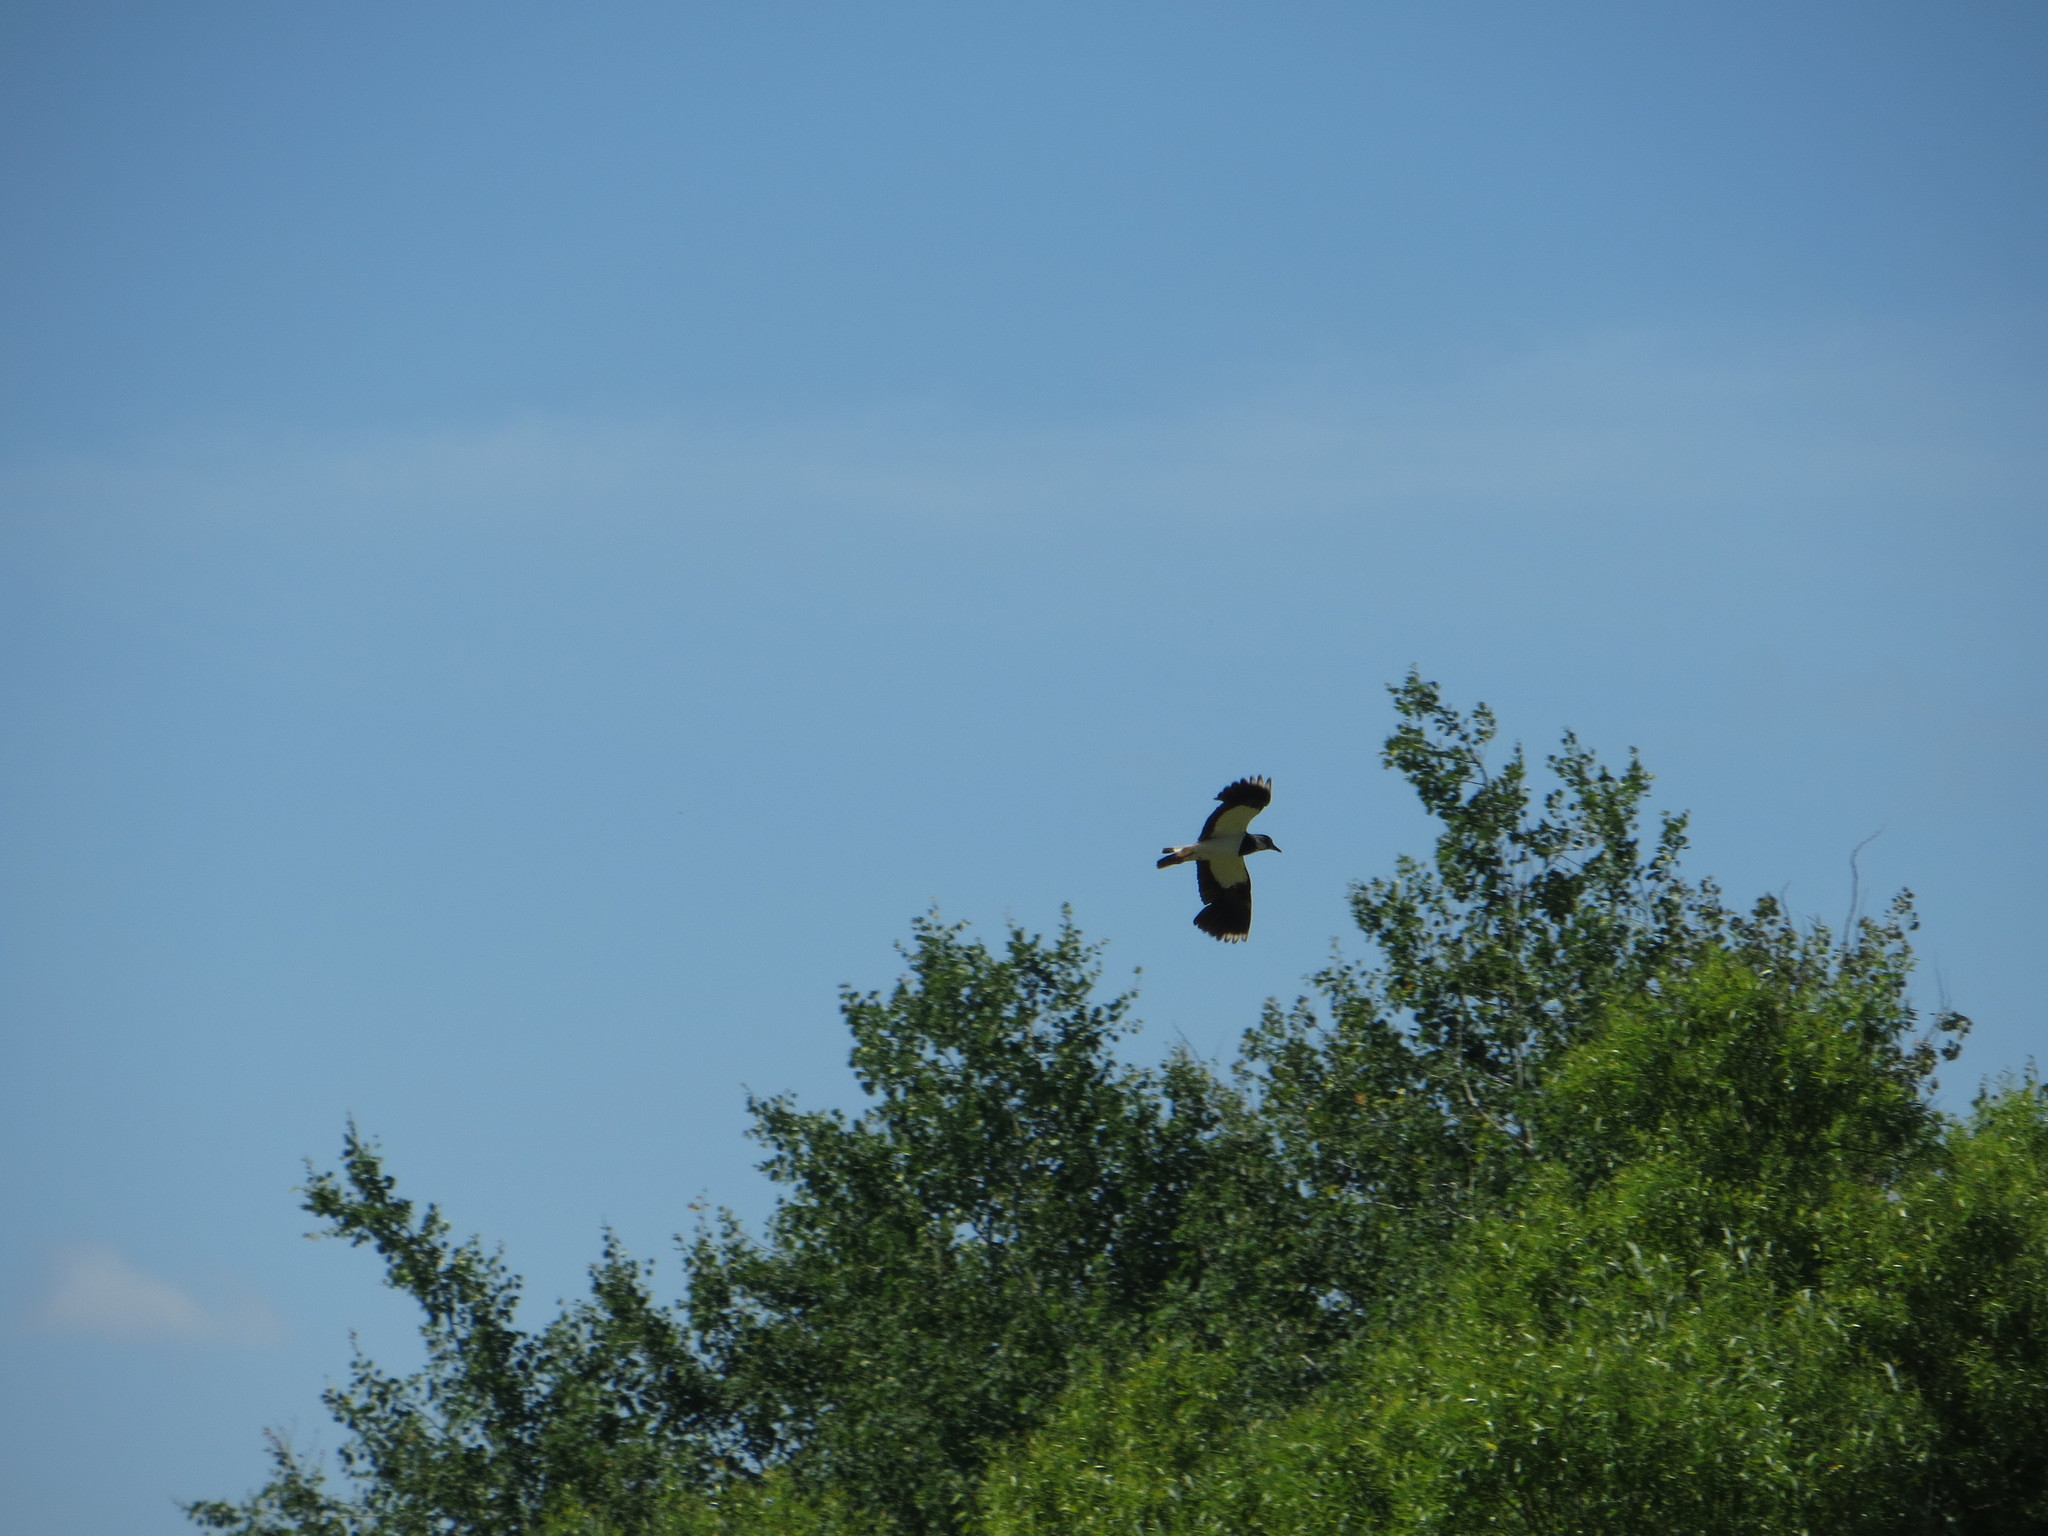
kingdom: Animalia
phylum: Chordata
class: Aves
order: Charadriiformes
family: Charadriidae
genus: Vanellus
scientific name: Vanellus vanellus
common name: Northern lapwing
